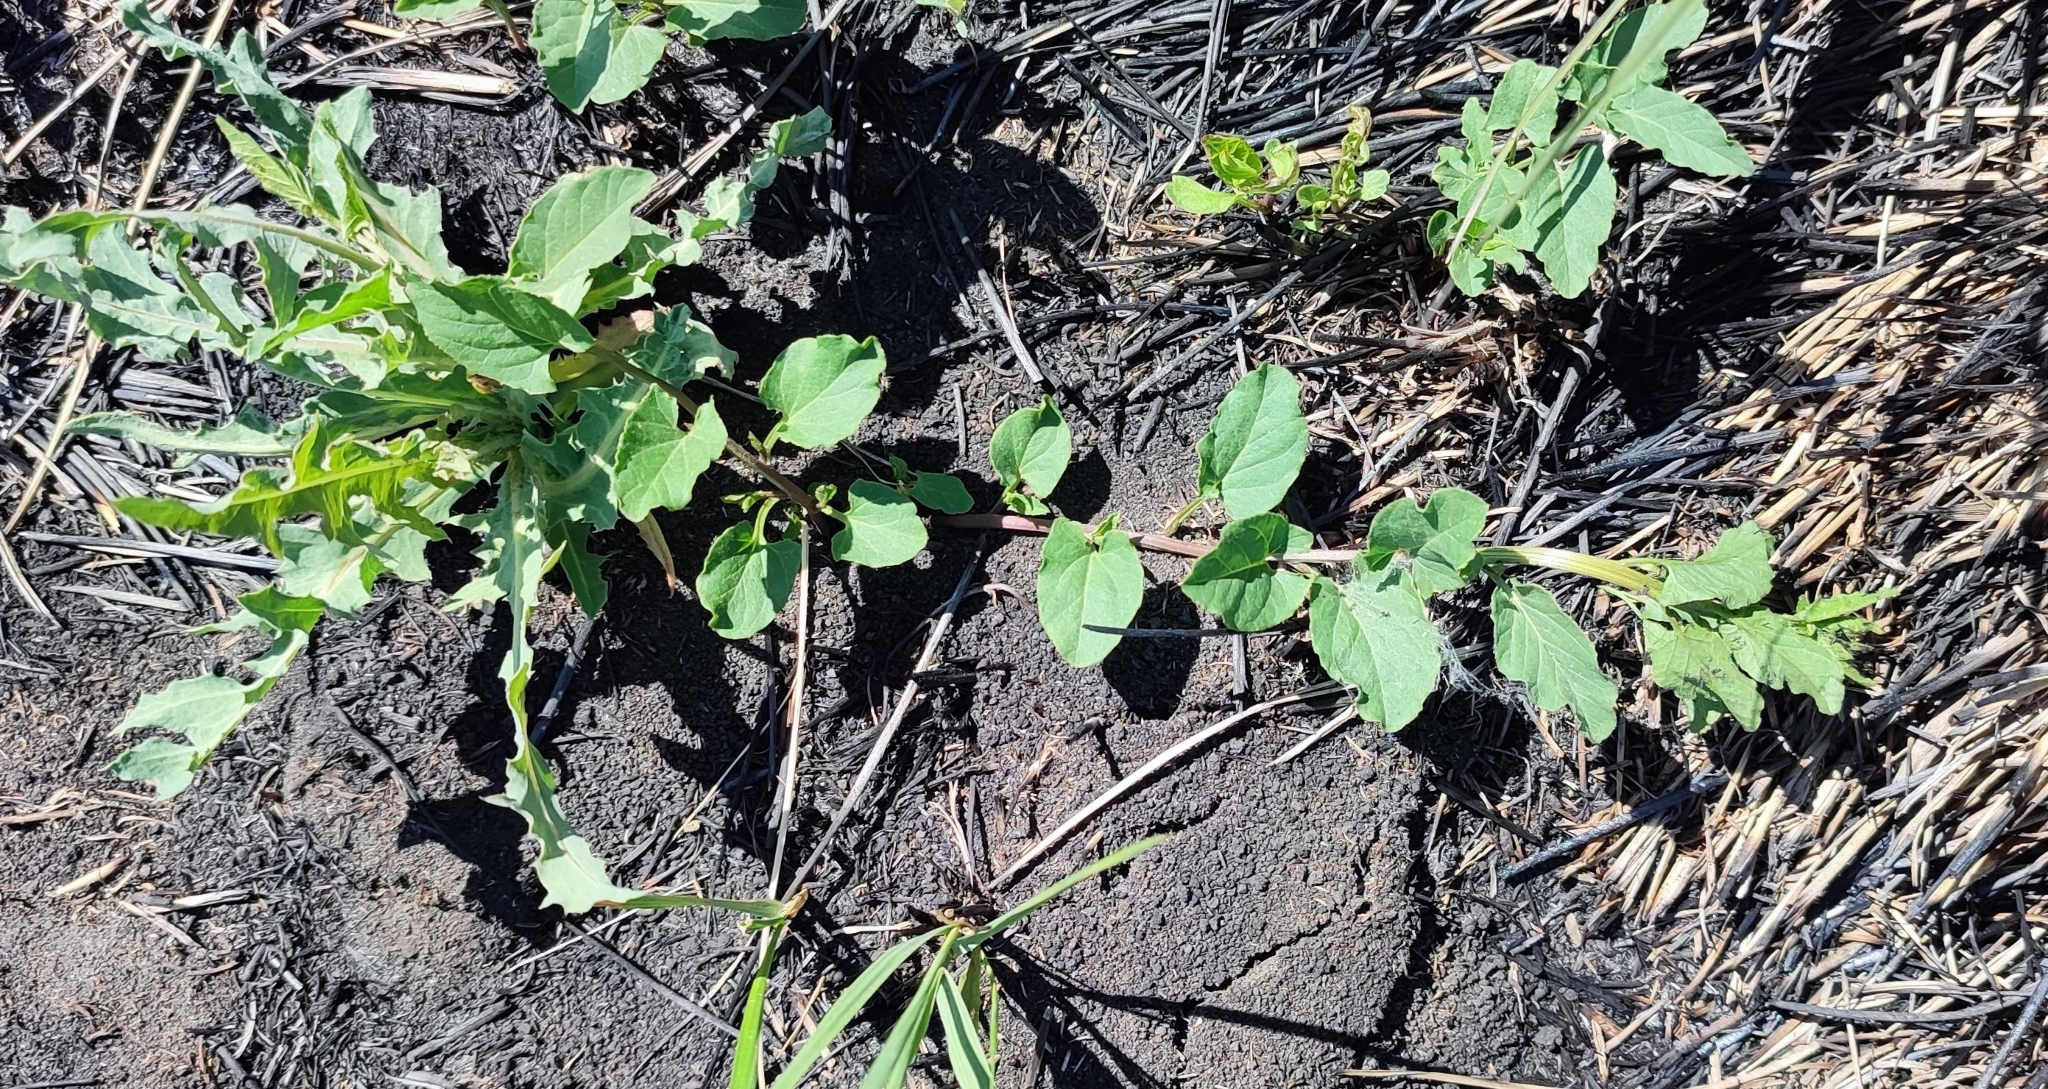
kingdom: Plantae
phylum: Tracheophyta
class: Magnoliopsida
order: Solanales
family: Convolvulaceae
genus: Convolvulus
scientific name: Convolvulus arvensis
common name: Field bindweed
